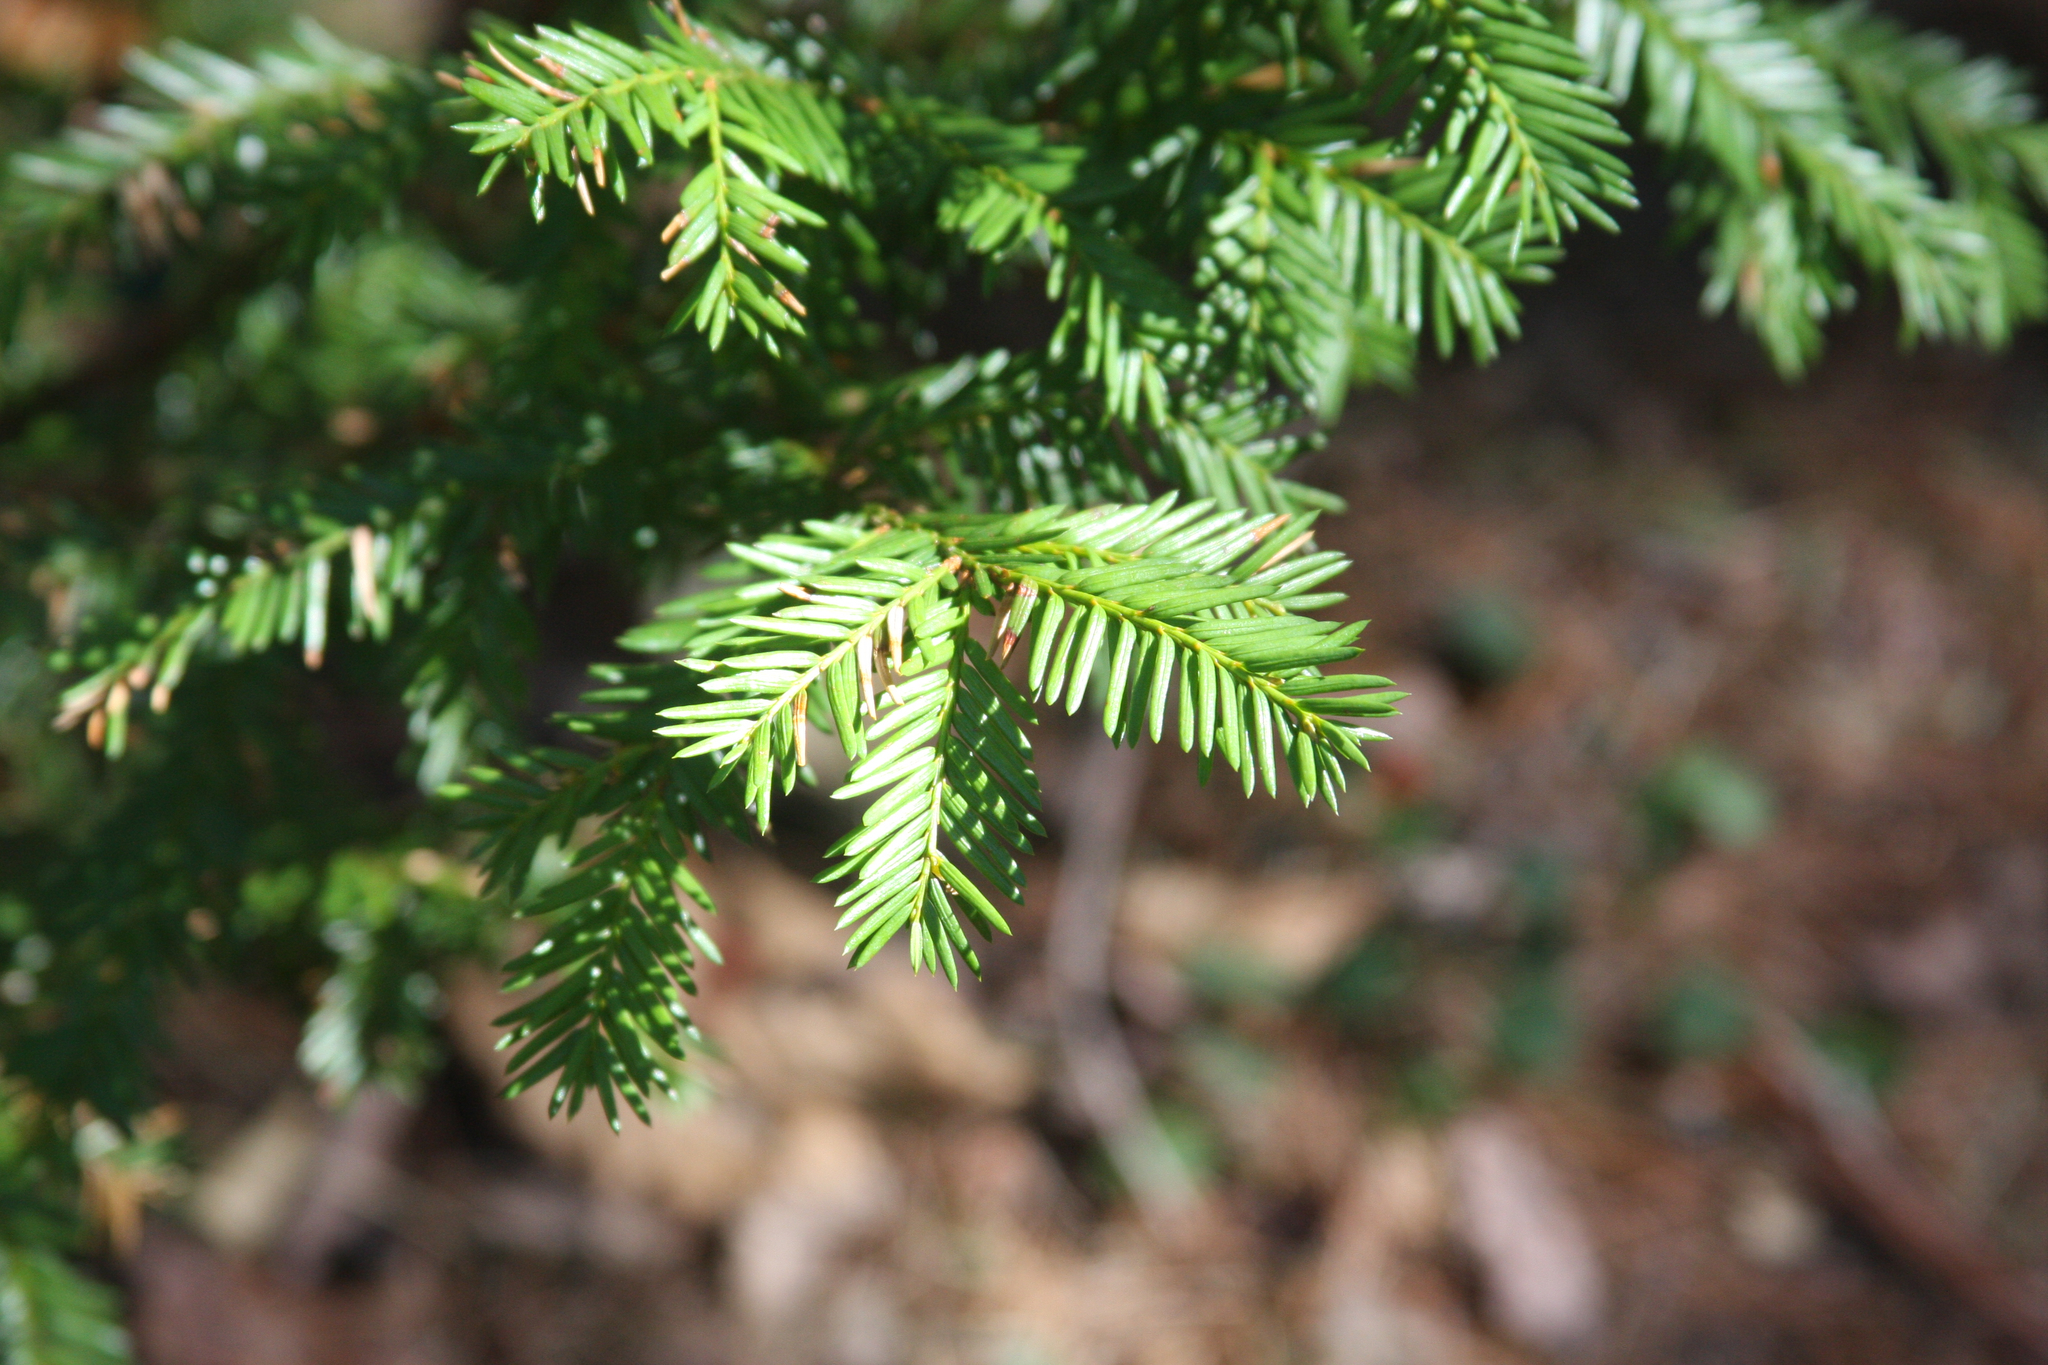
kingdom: Plantae
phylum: Tracheophyta
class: Pinopsida
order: Pinales
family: Taxaceae
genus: Taxus
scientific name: Taxus canadensis
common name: American yew
